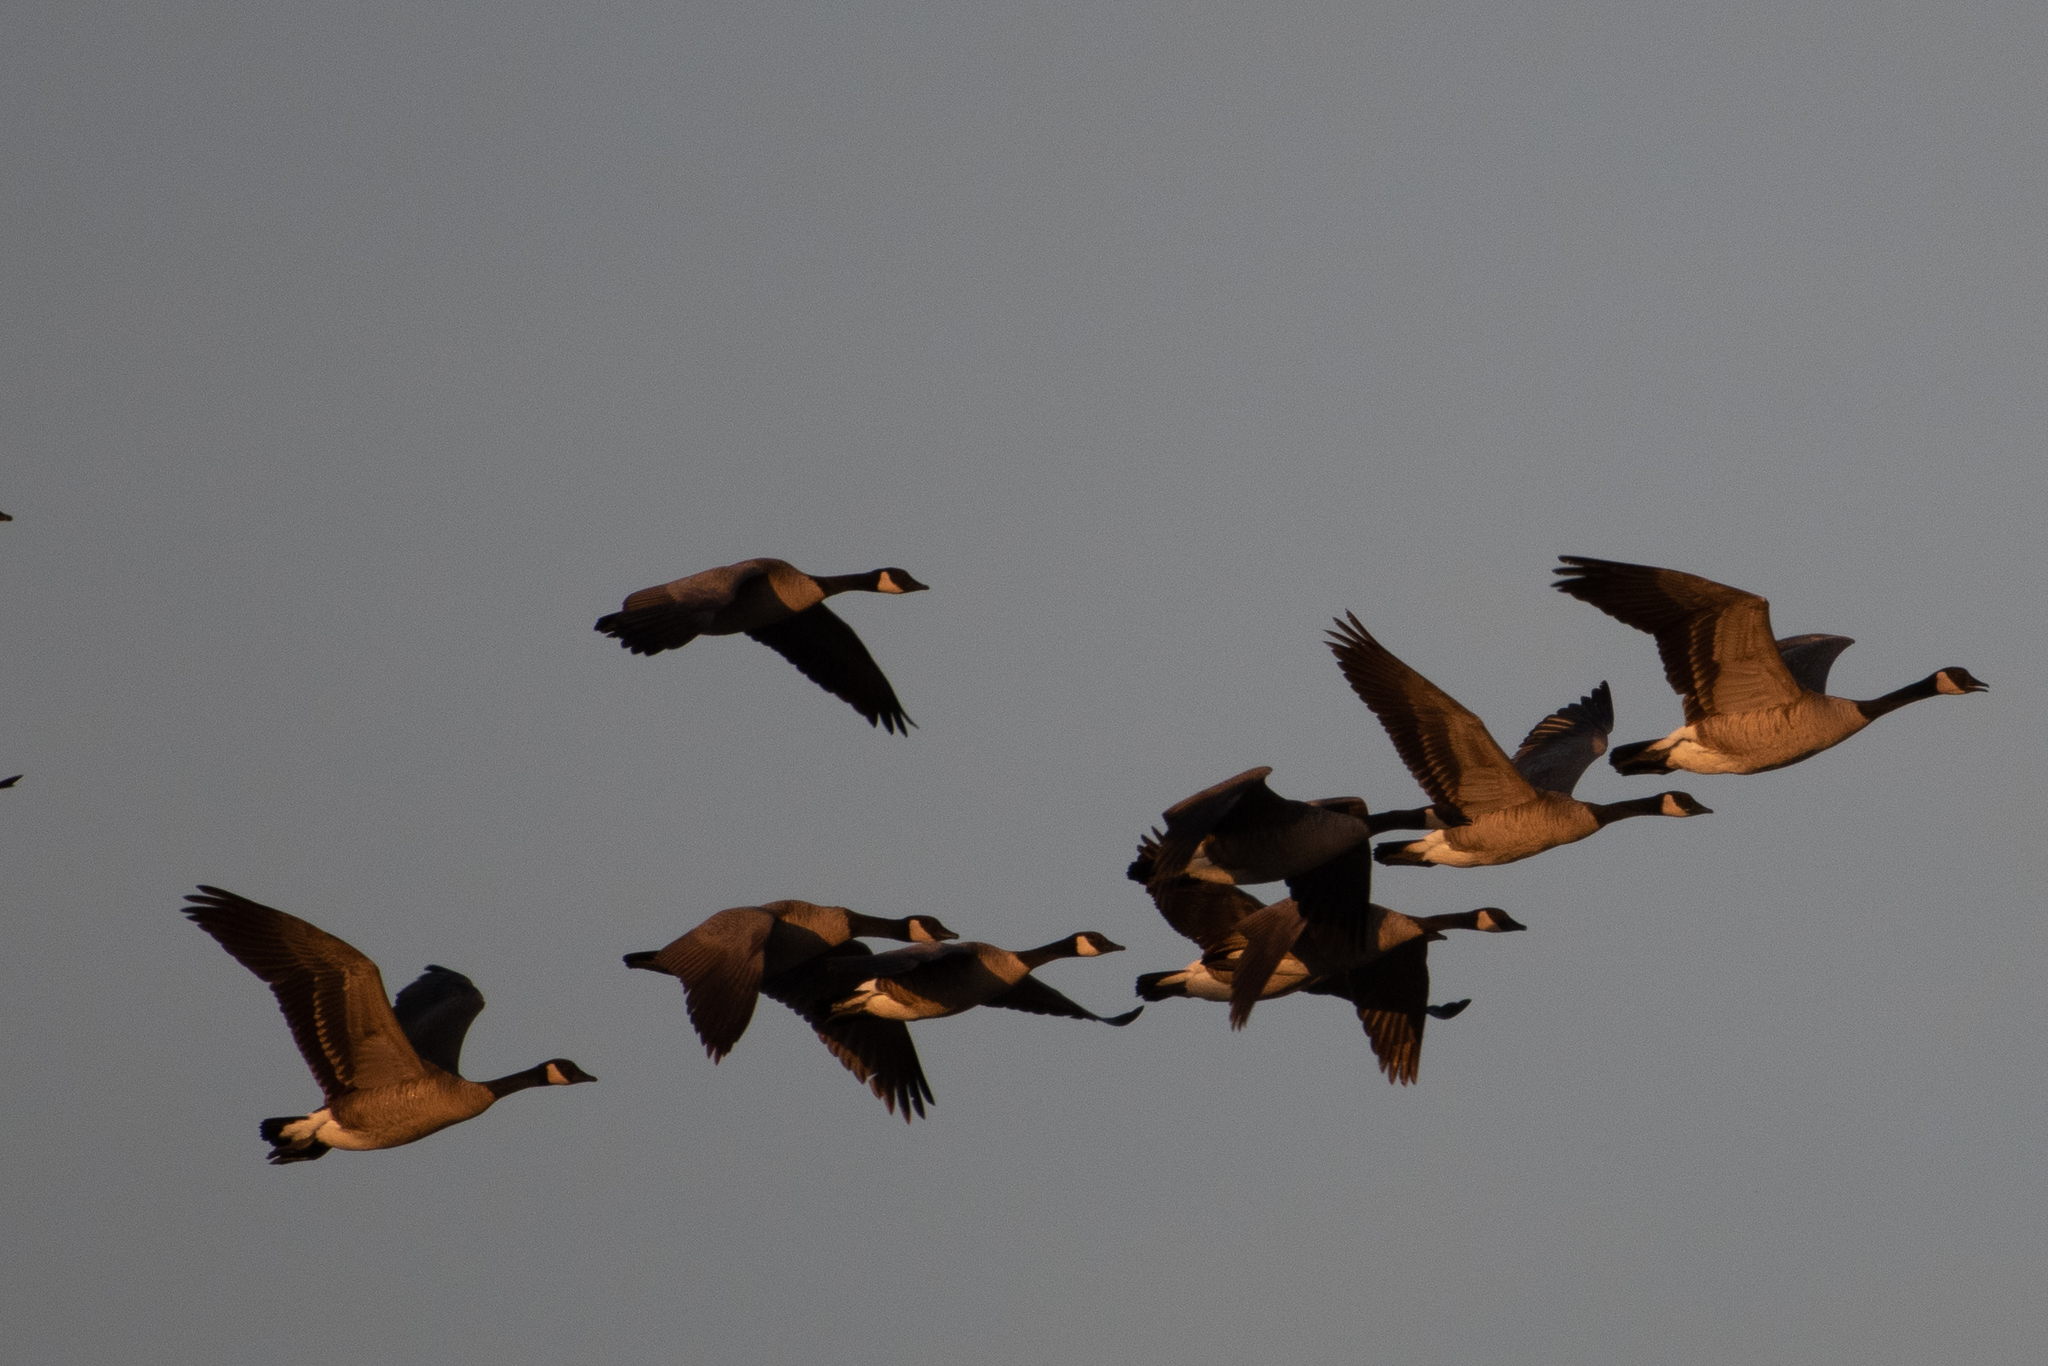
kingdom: Animalia
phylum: Chordata
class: Aves
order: Anseriformes
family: Anatidae
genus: Branta
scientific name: Branta canadensis
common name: Canada goose
